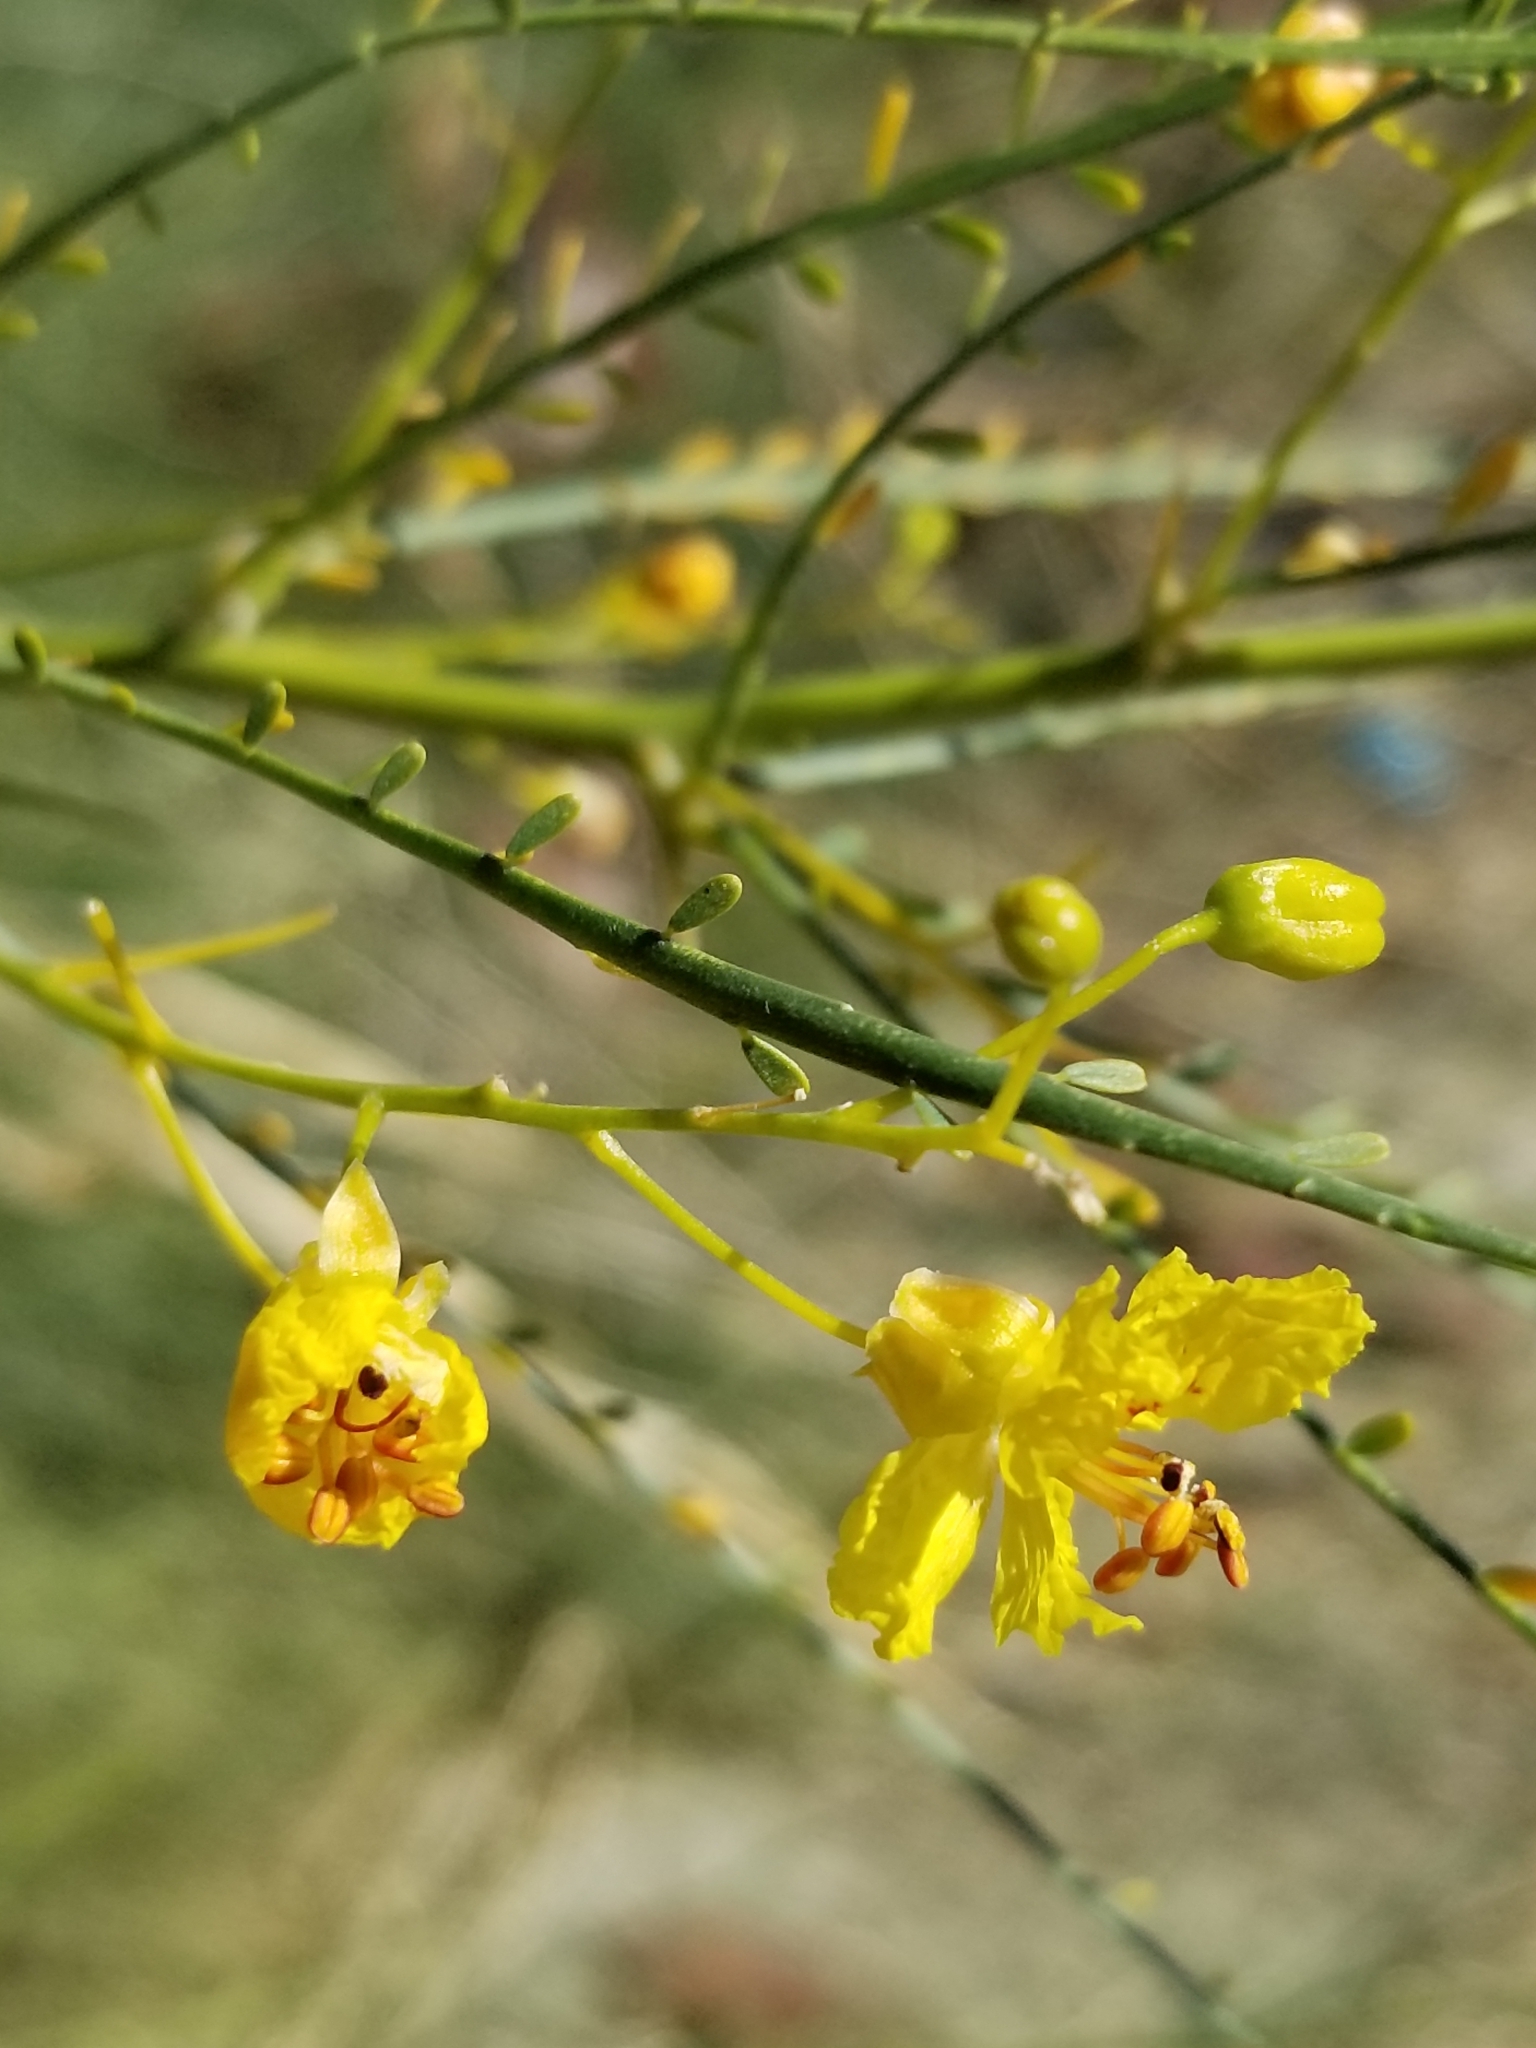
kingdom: Plantae
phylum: Tracheophyta
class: Magnoliopsida
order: Fabales
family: Fabaceae
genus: Parkinsonia
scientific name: Parkinsonia aculeata
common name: Jerusalem thorn
